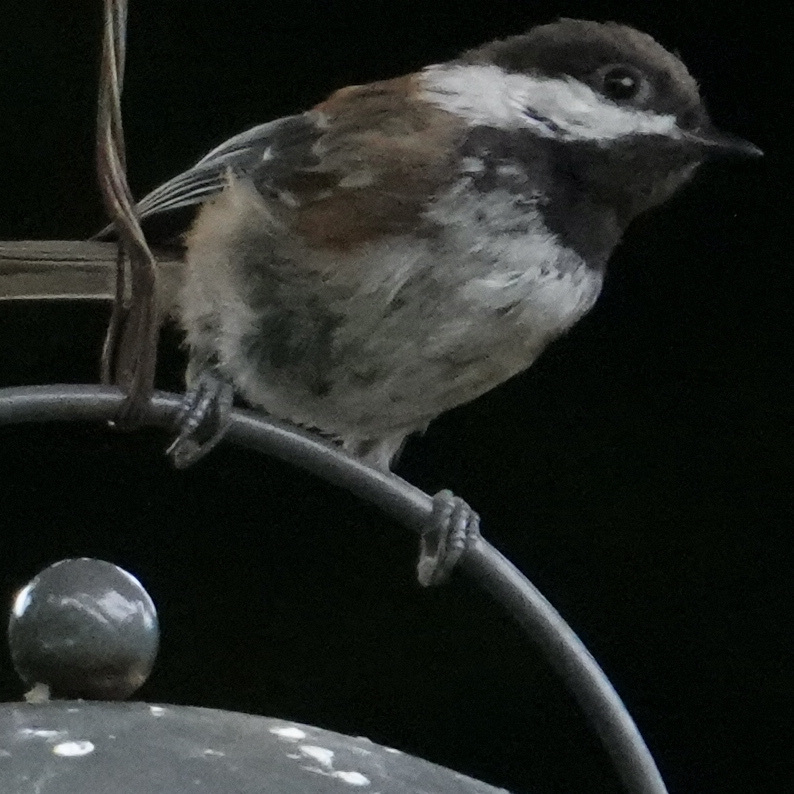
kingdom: Animalia
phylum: Chordata
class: Aves
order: Passeriformes
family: Paridae
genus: Poecile
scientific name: Poecile rufescens
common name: Chestnut-backed chickadee
